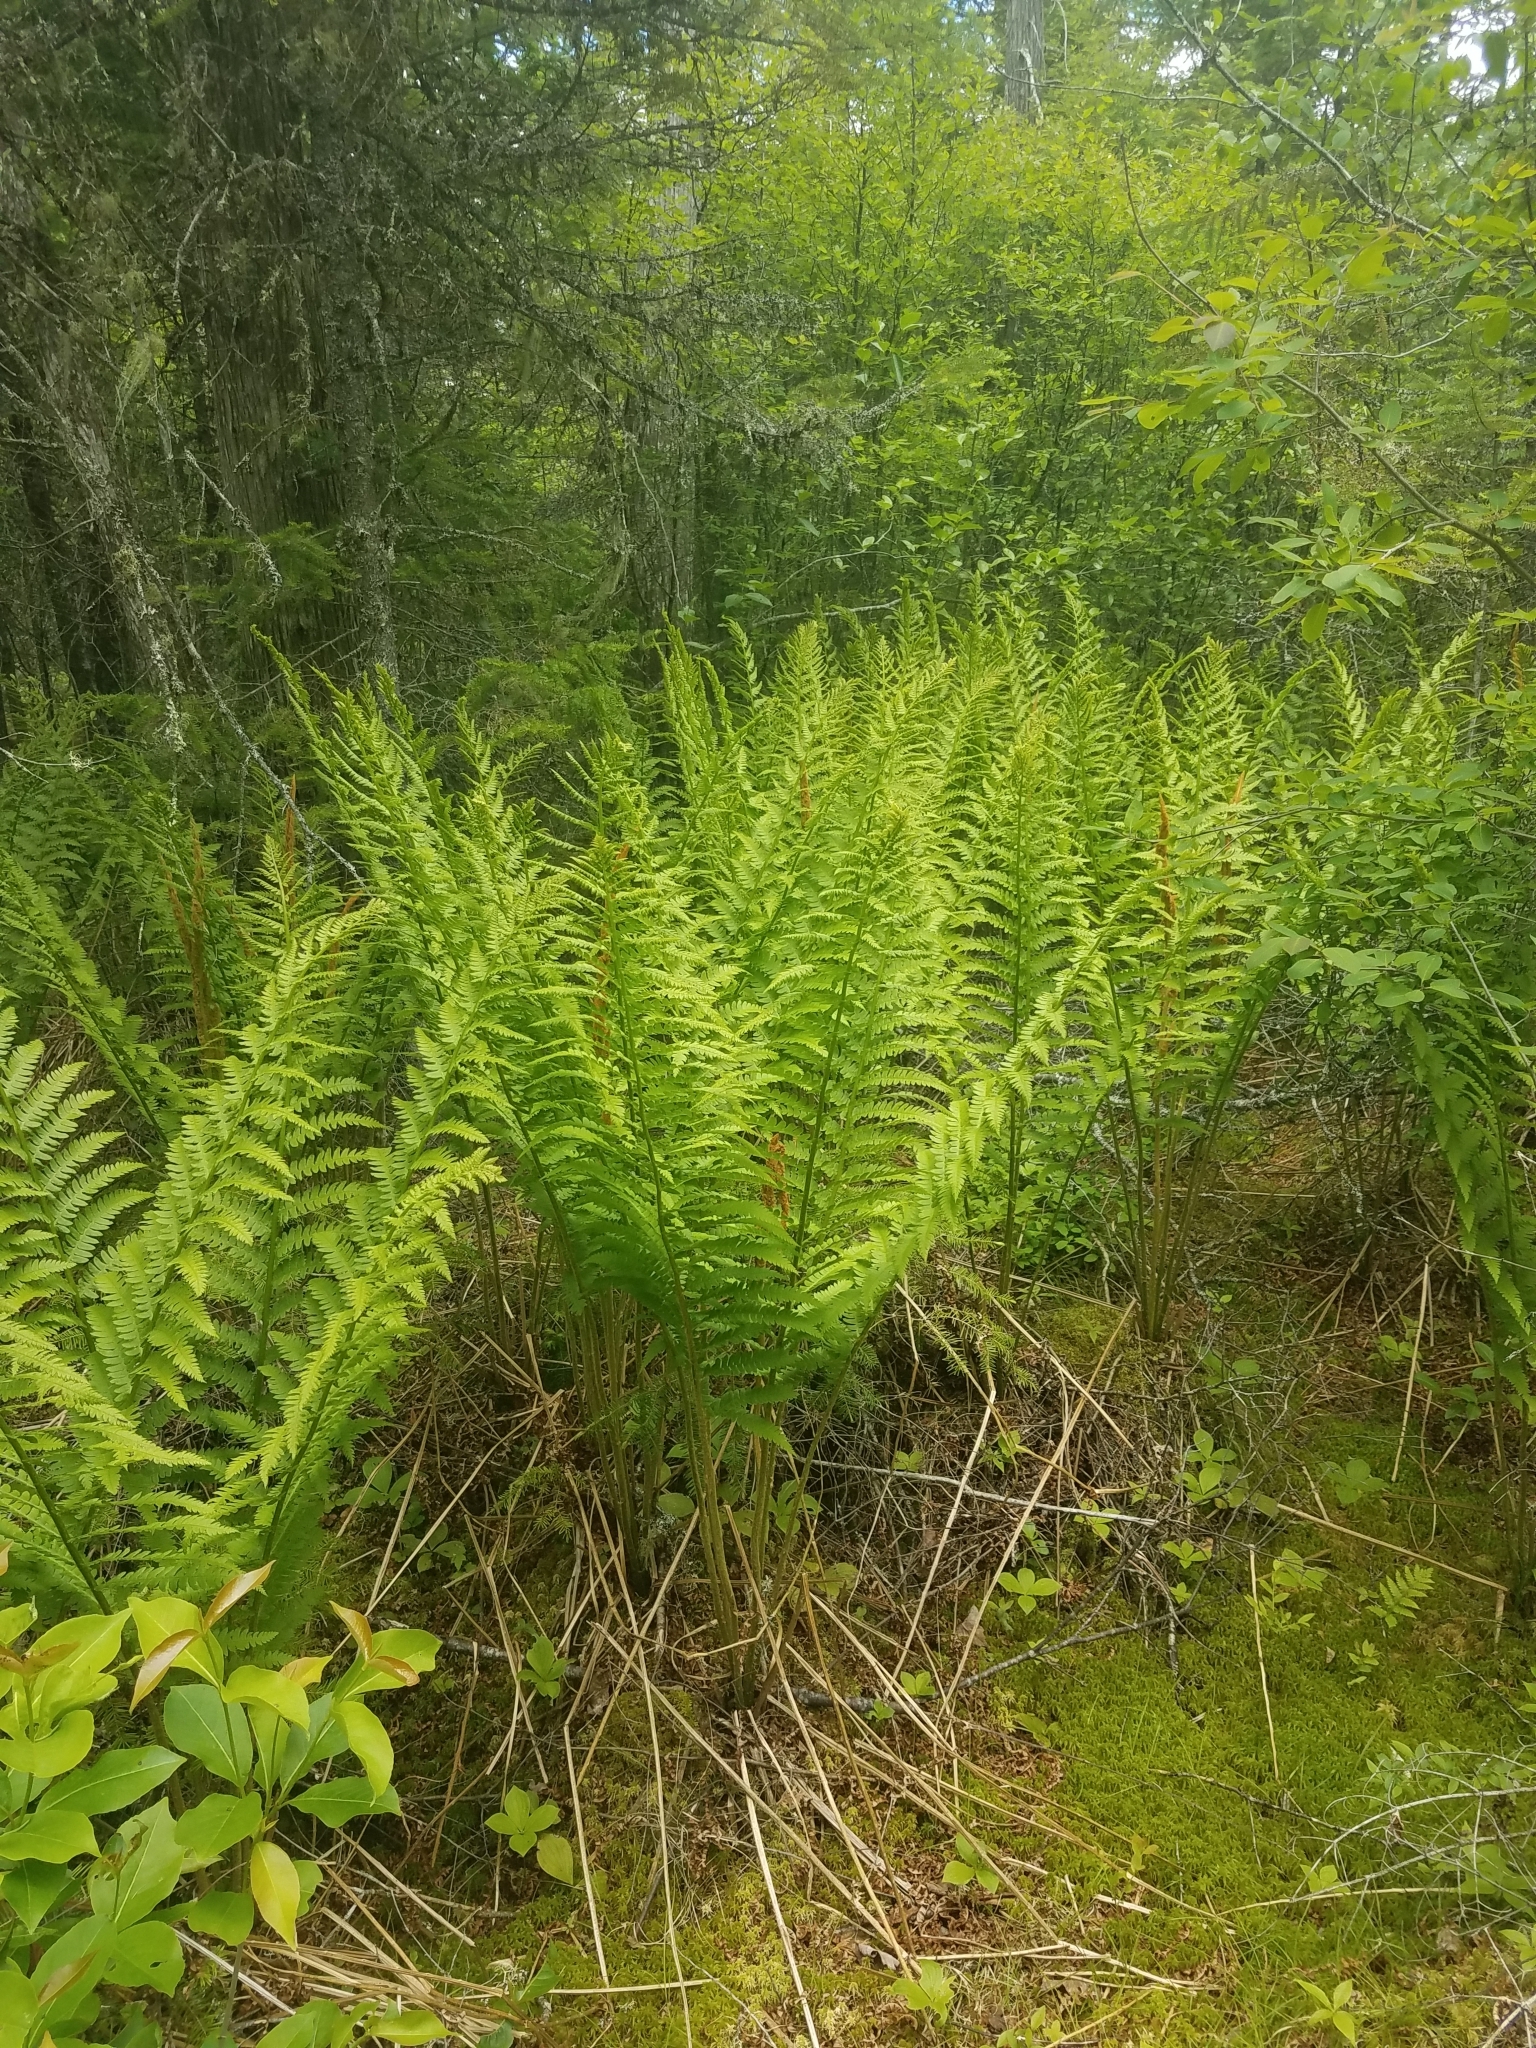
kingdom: Plantae
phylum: Tracheophyta
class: Polypodiopsida
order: Osmundales
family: Osmundaceae
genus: Osmundastrum
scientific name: Osmundastrum cinnamomeum
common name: Cinnamon fern
